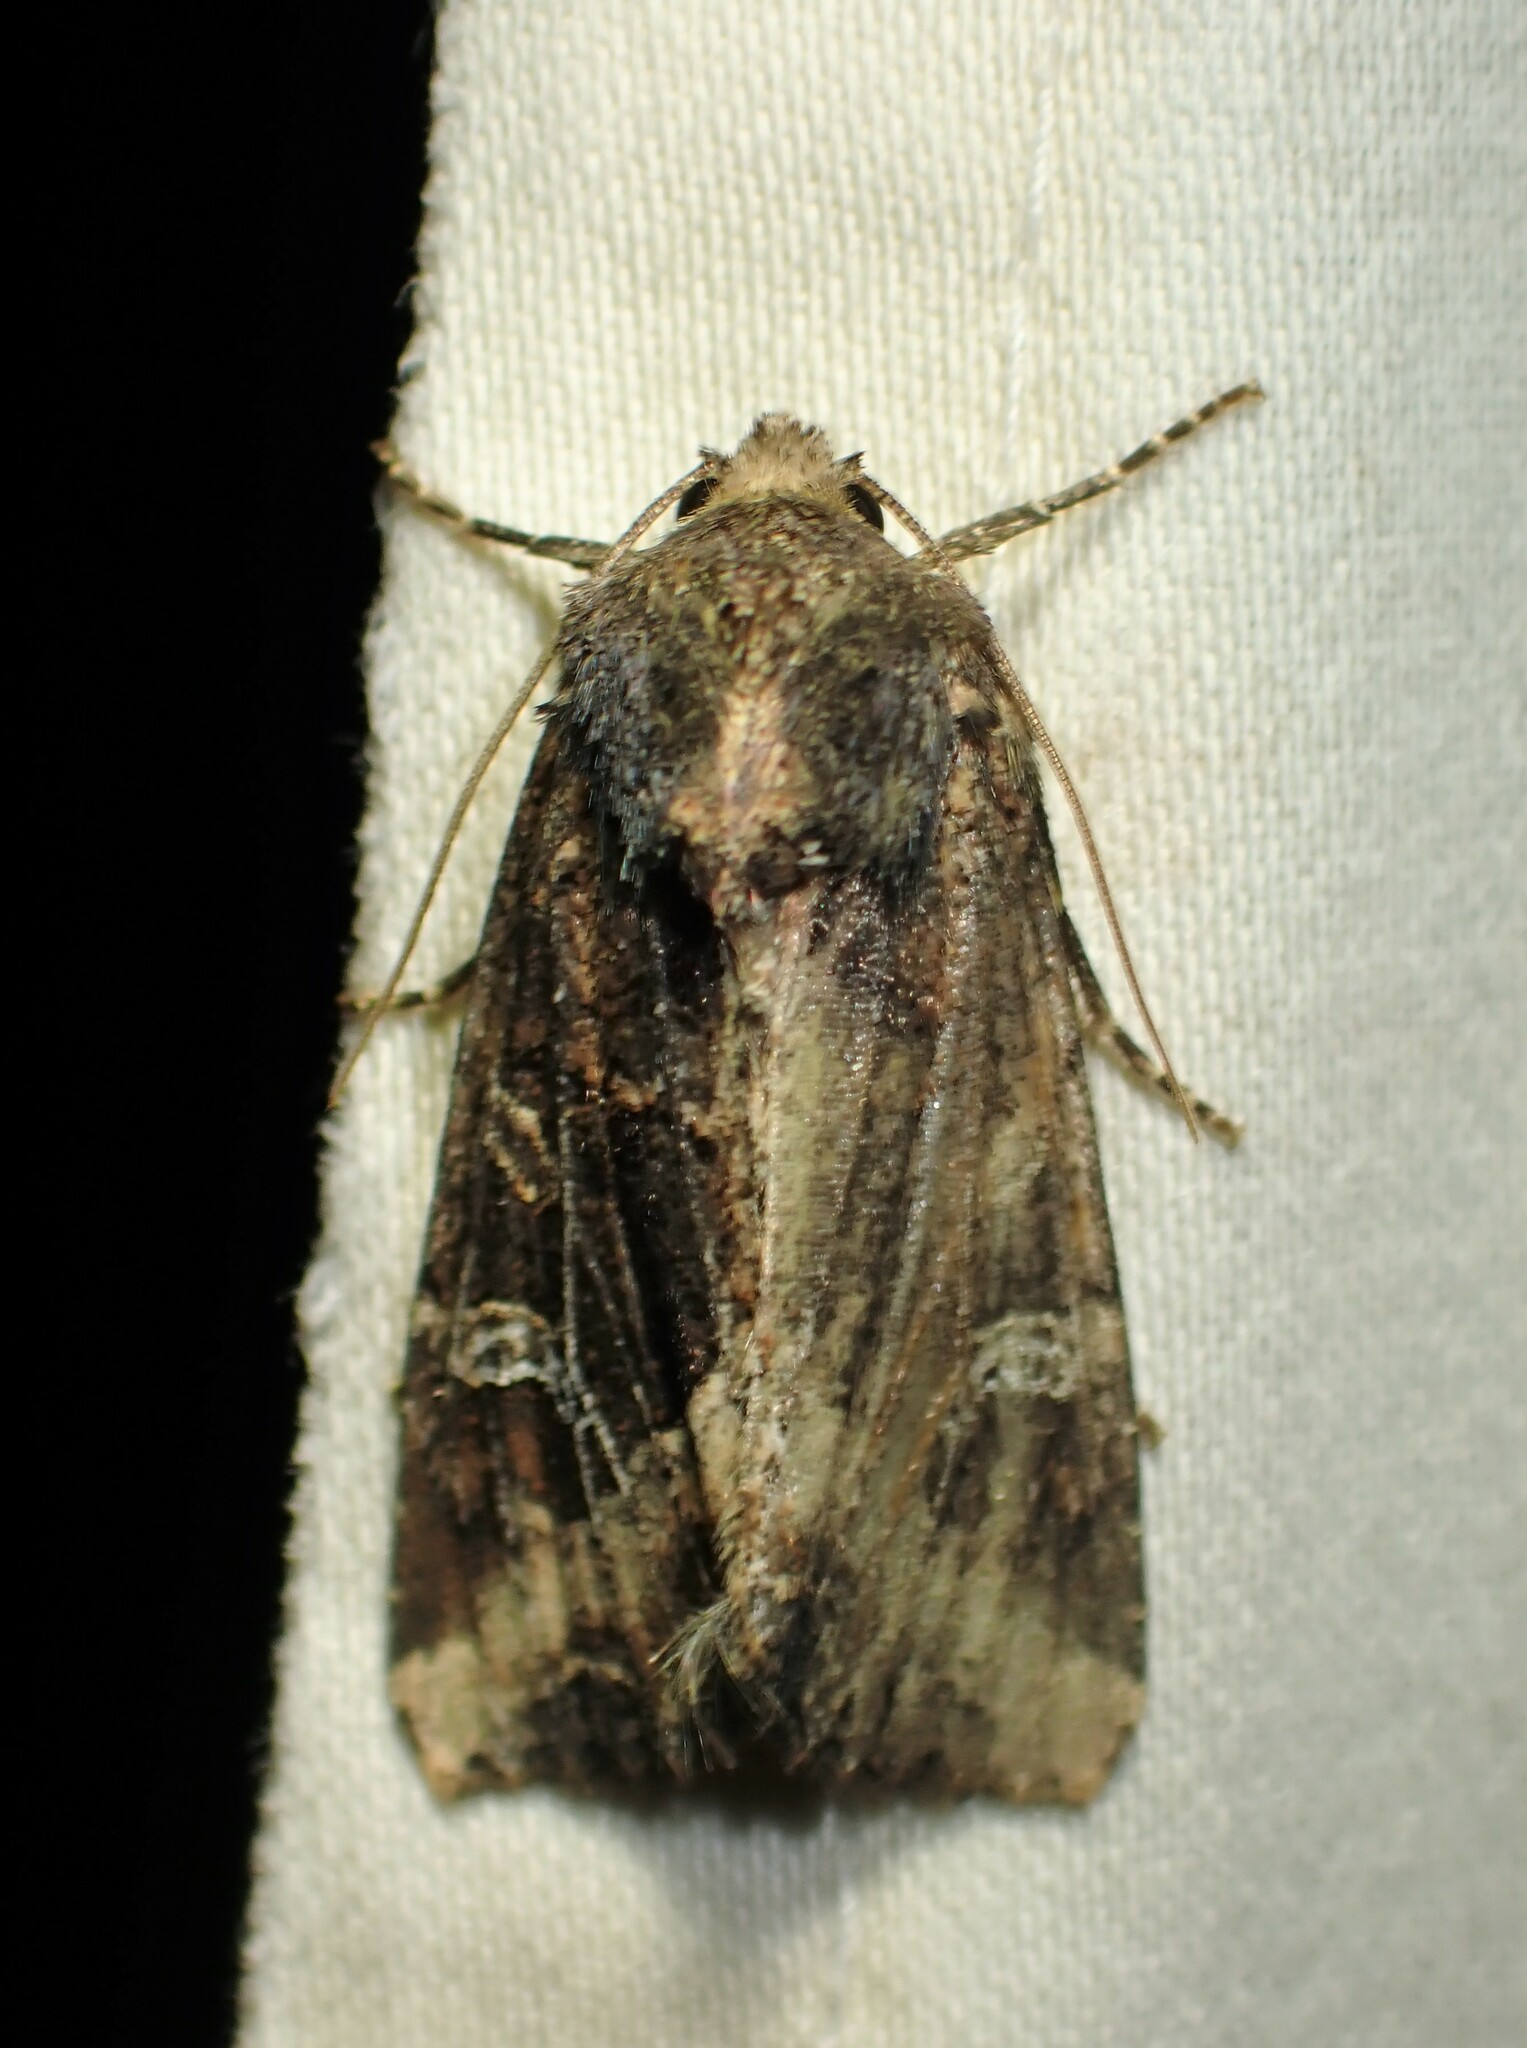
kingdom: Animalia
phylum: Arthropoda
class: Insecta
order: Lepidoptera
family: Noctuidae
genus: Helotropha
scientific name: Helotropha reniformis
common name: Kidney-spotted rustic moth
